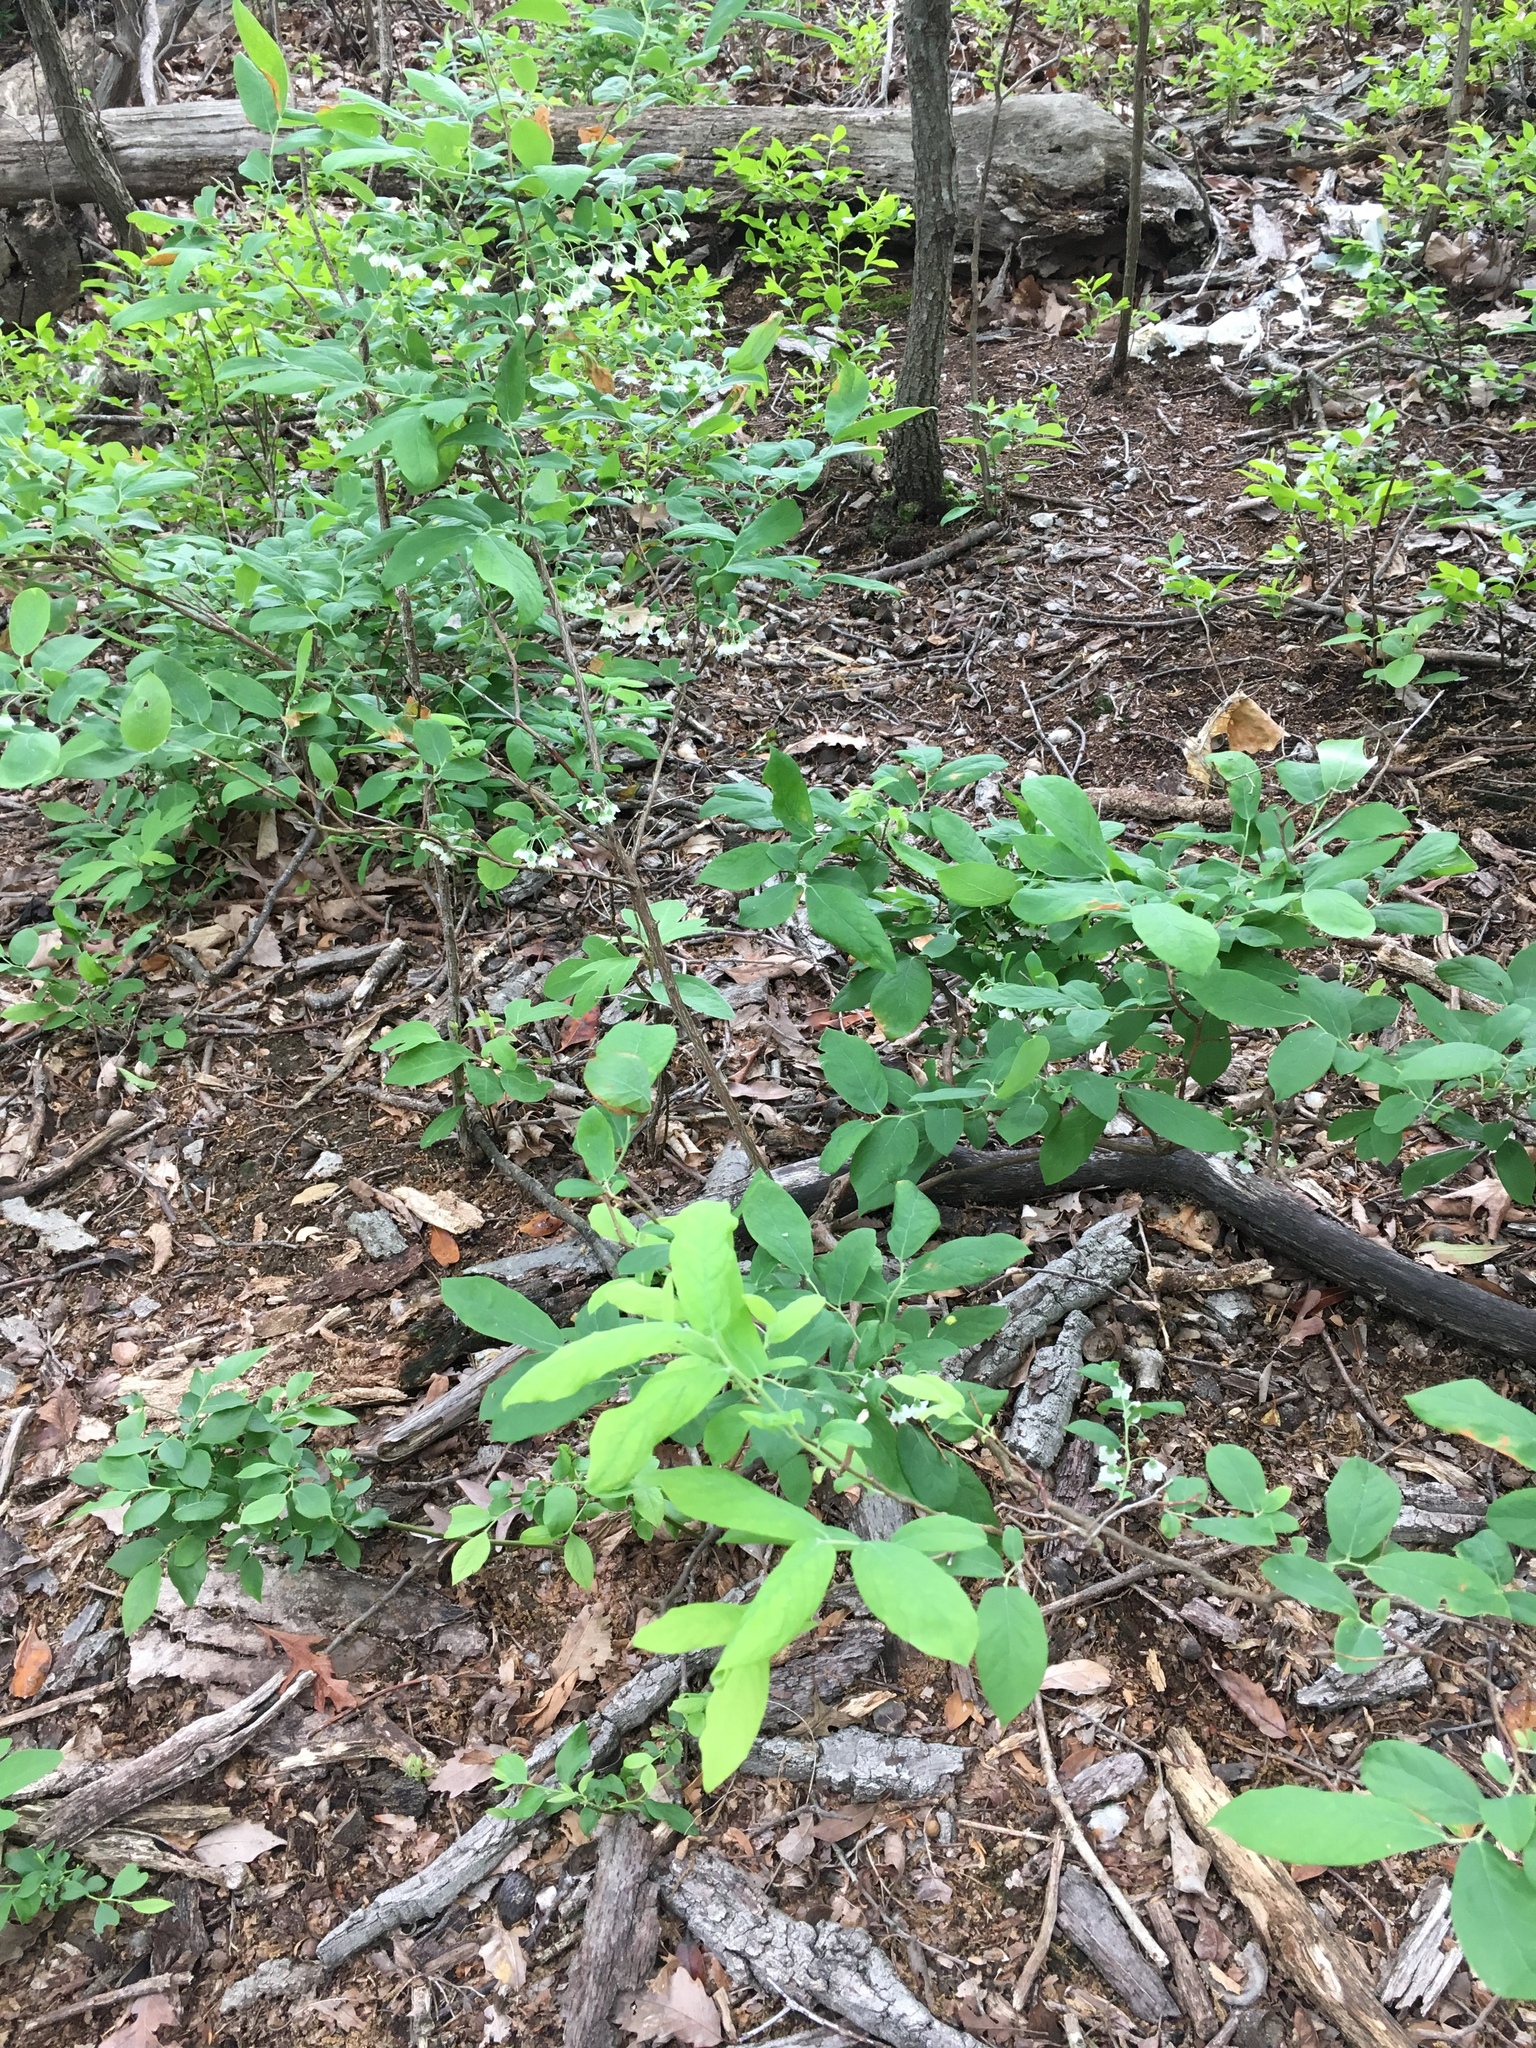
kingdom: Plantae
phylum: Tracheophyta
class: Magnoliopsida
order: Ericales
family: Ericaceae
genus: Vaccinium
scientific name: Vaccinium stamineum
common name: Deerberry
